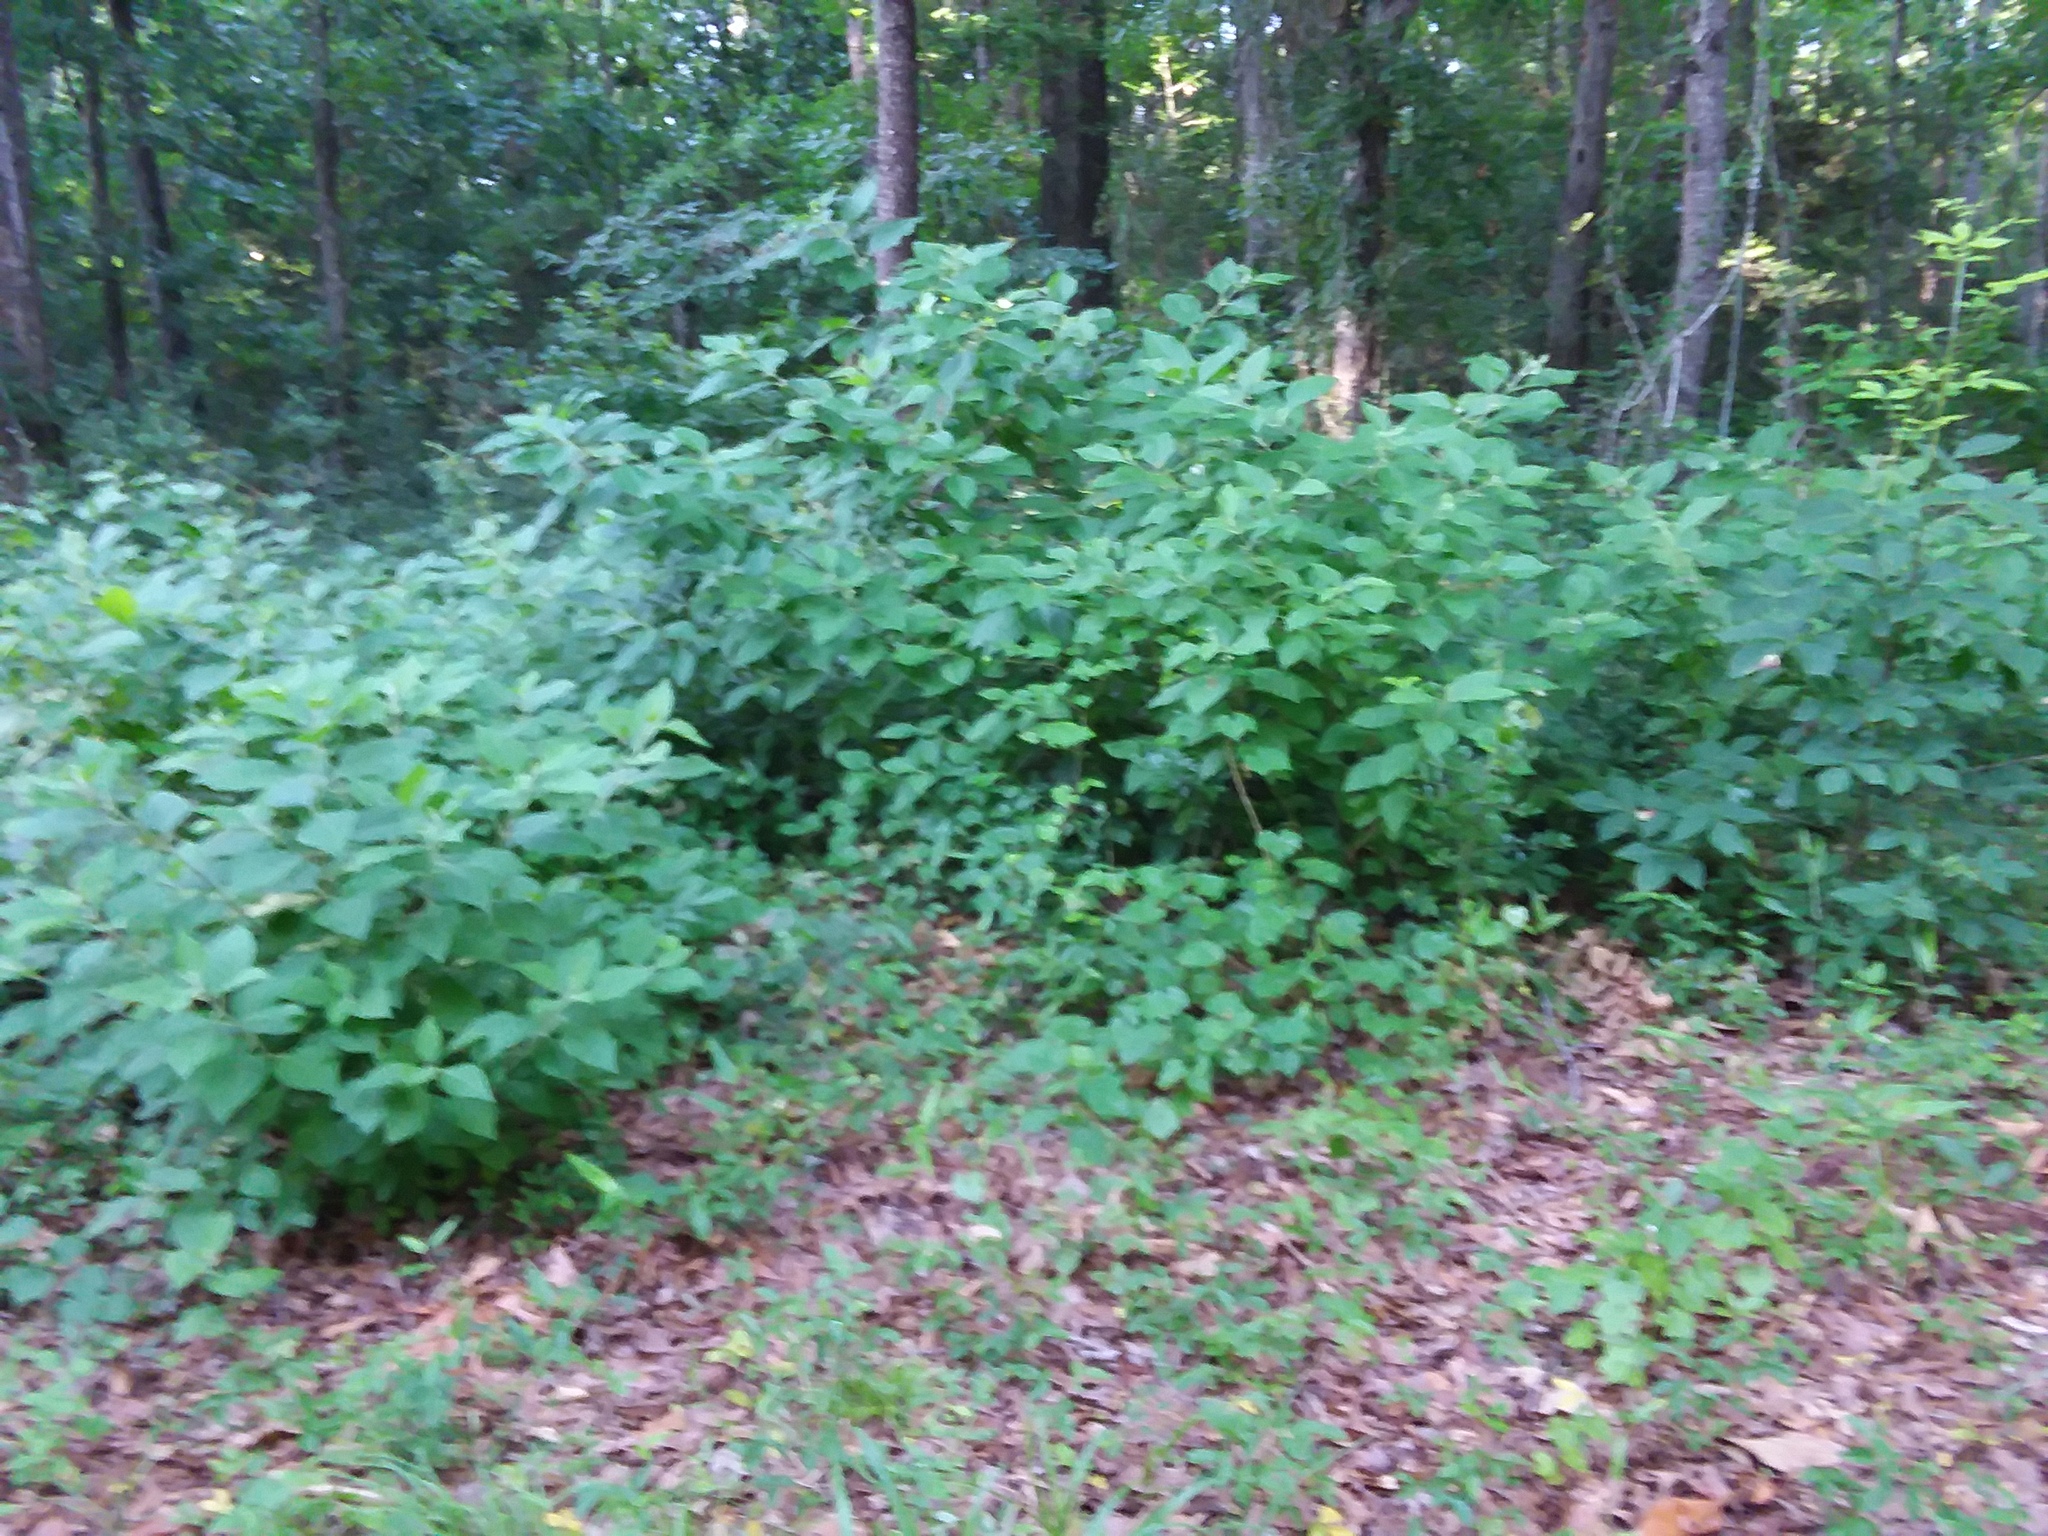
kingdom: Plantae
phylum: Tracheophyta
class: Magnoliopsida
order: Lamiales
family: Lamiaceae
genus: Callicarpa
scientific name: Callicarpa americana
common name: American beautyberry
